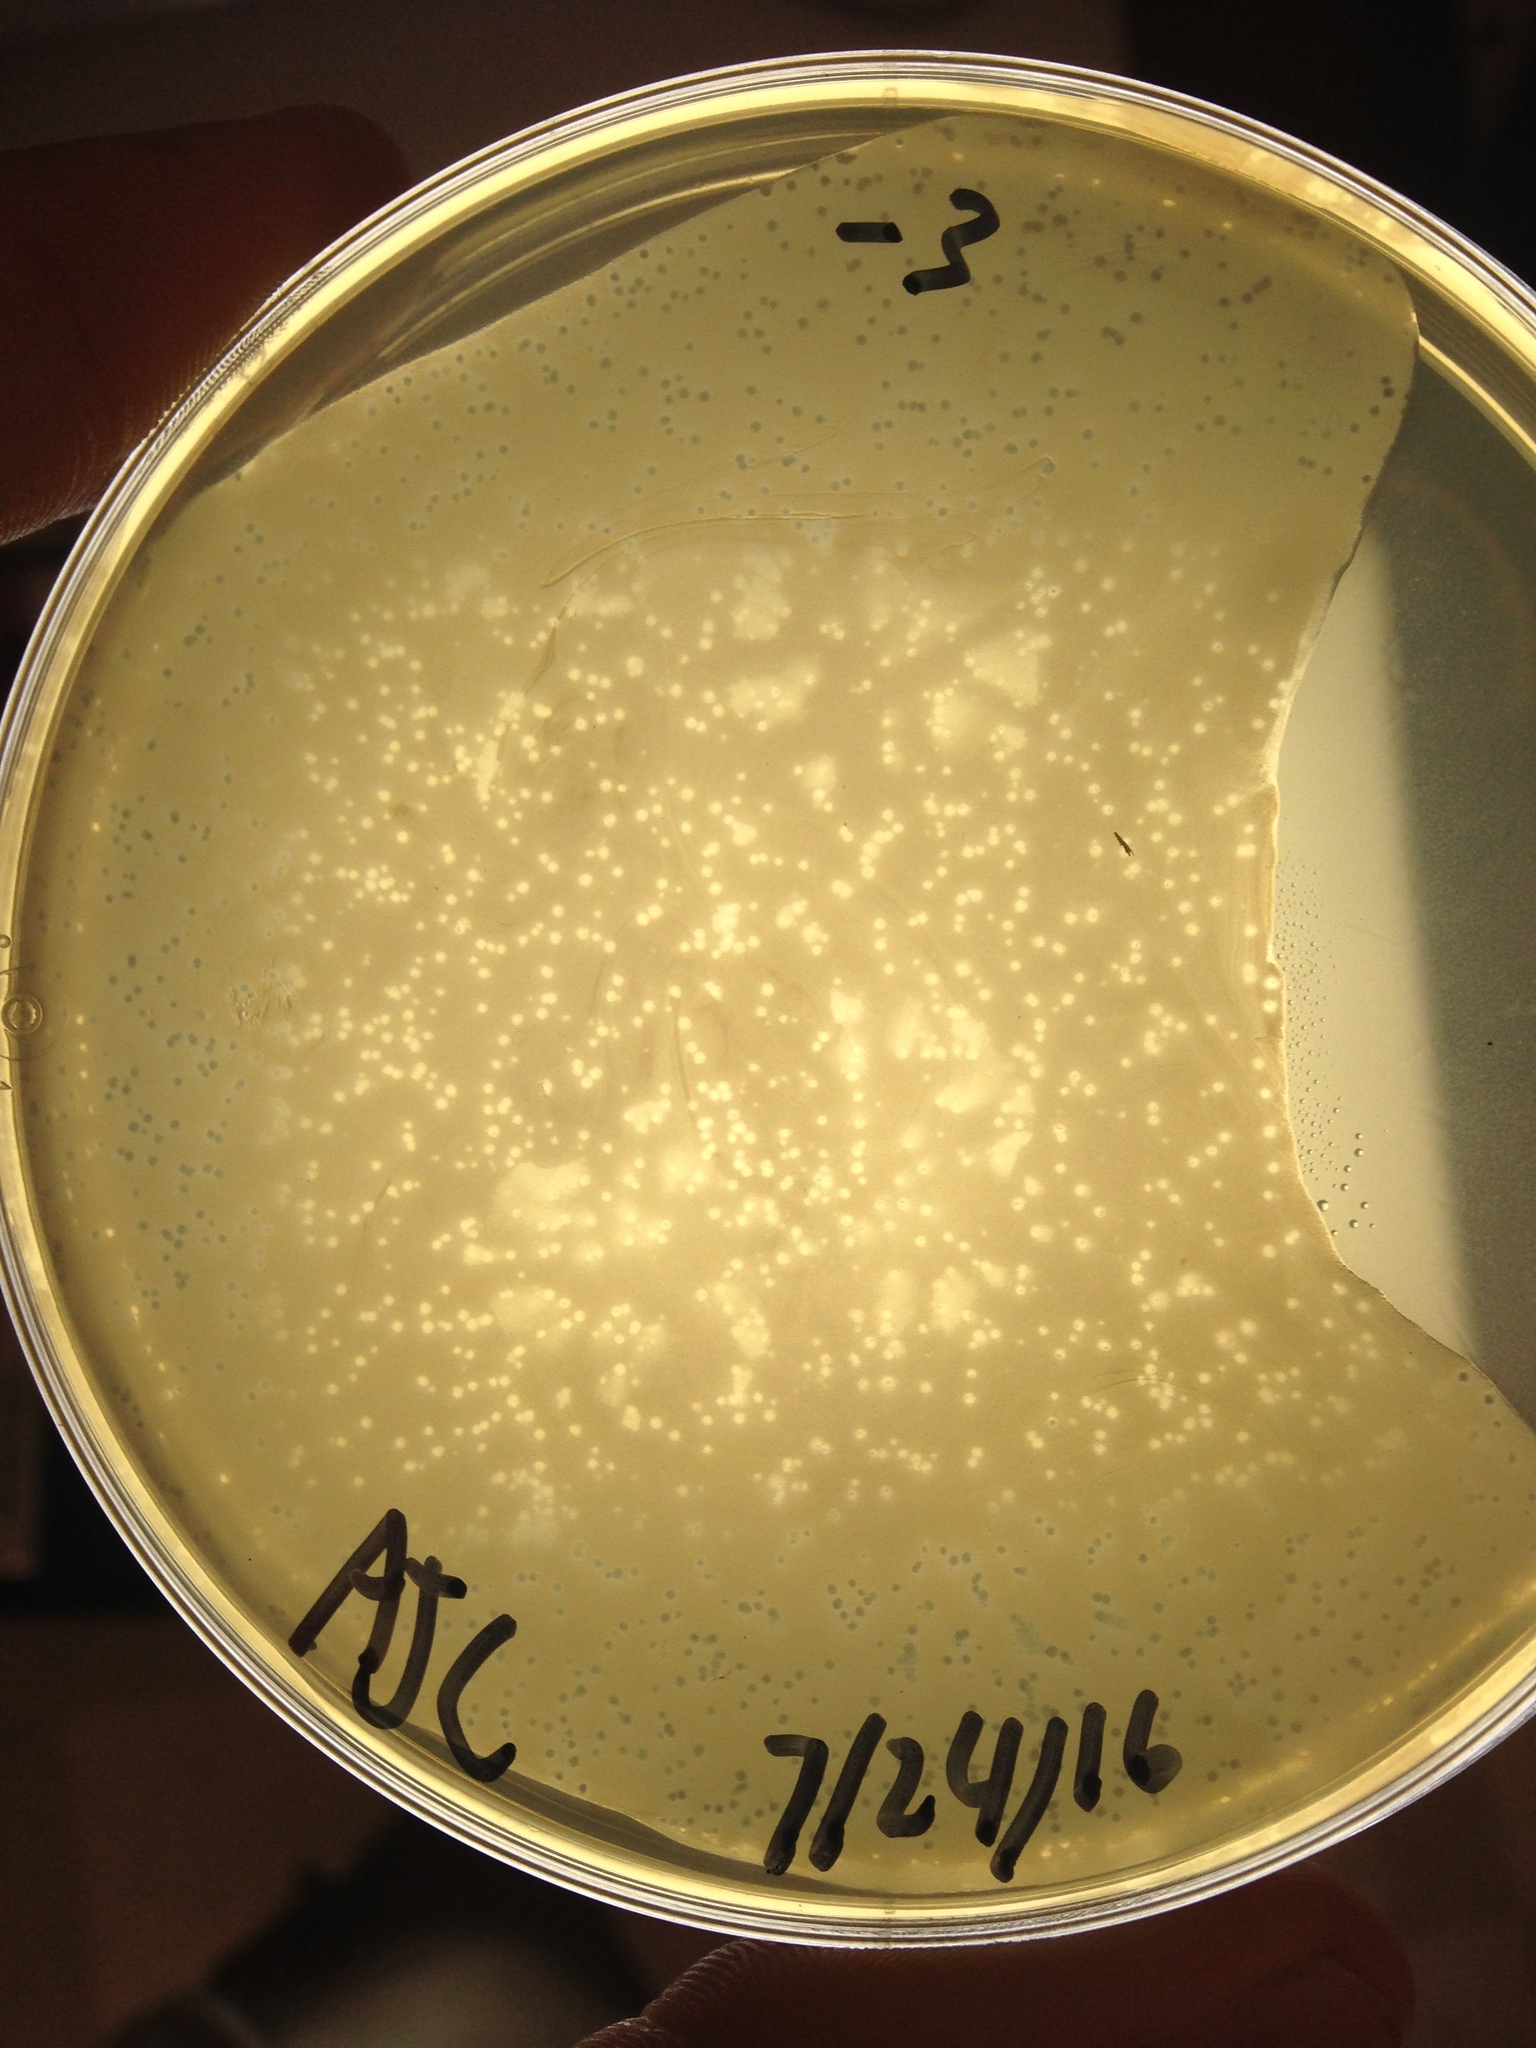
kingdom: Viruses
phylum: Uroviricota
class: Caudoviricetes
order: Caudovirales
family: Myoviridae
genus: Klausavirus
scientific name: Klausavirus colucci
